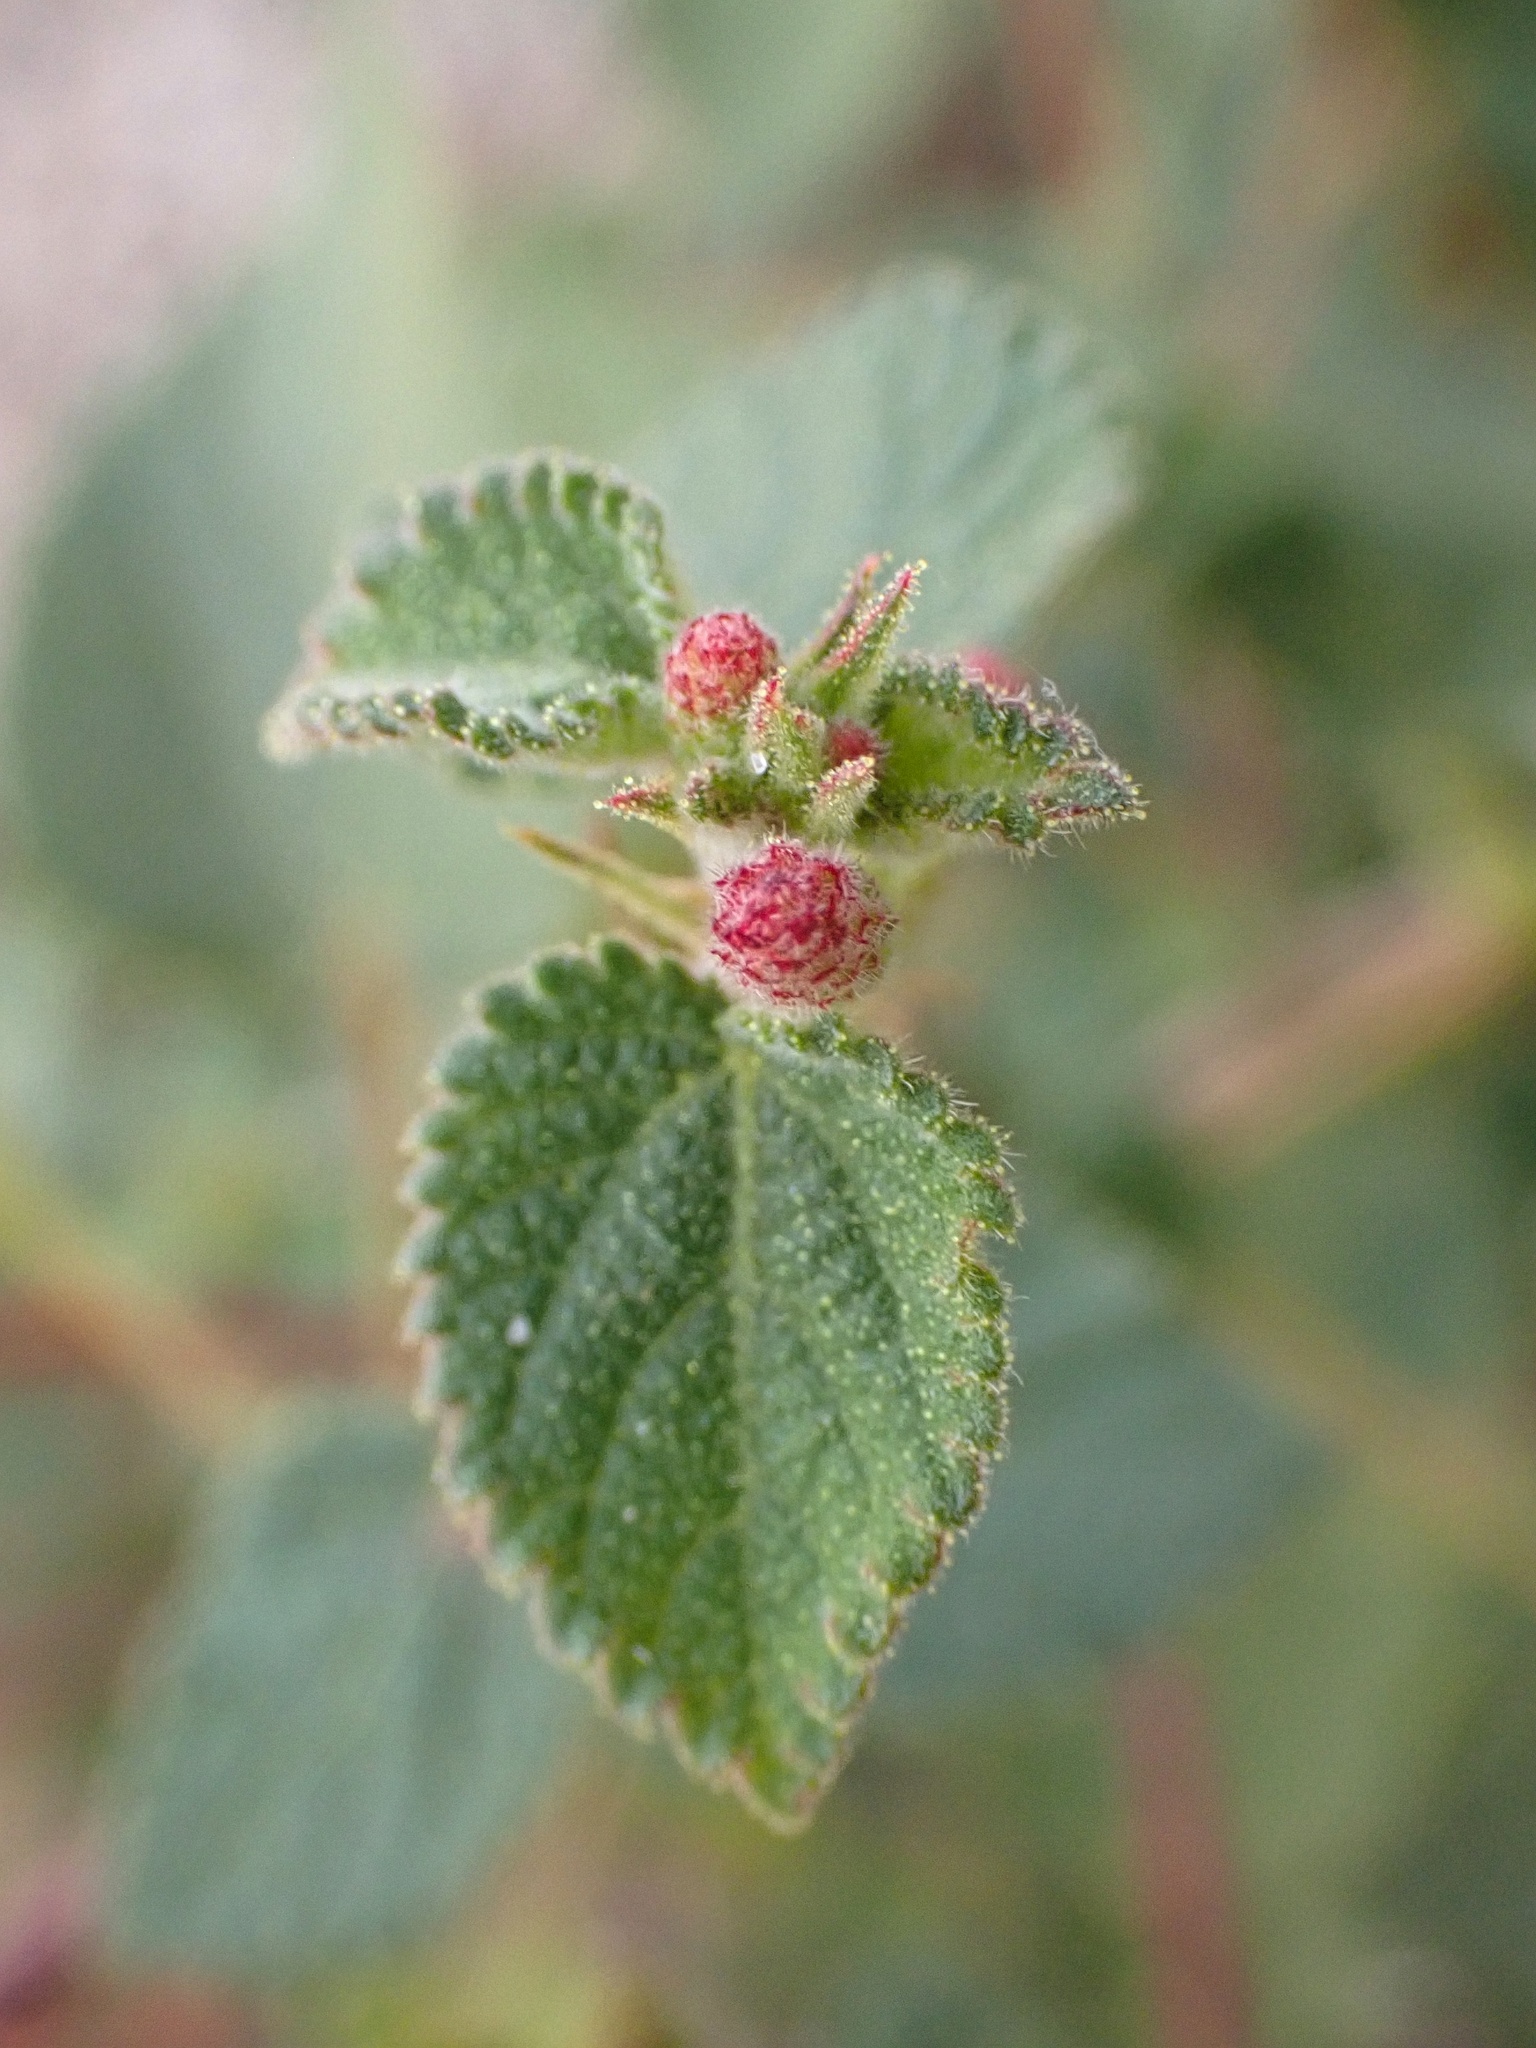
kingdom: Plantae
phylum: Tracheophyta
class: Magnoliopsida
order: Malpighiales
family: Euphorbiaceae
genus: Acalypha
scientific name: Acalypha californica
